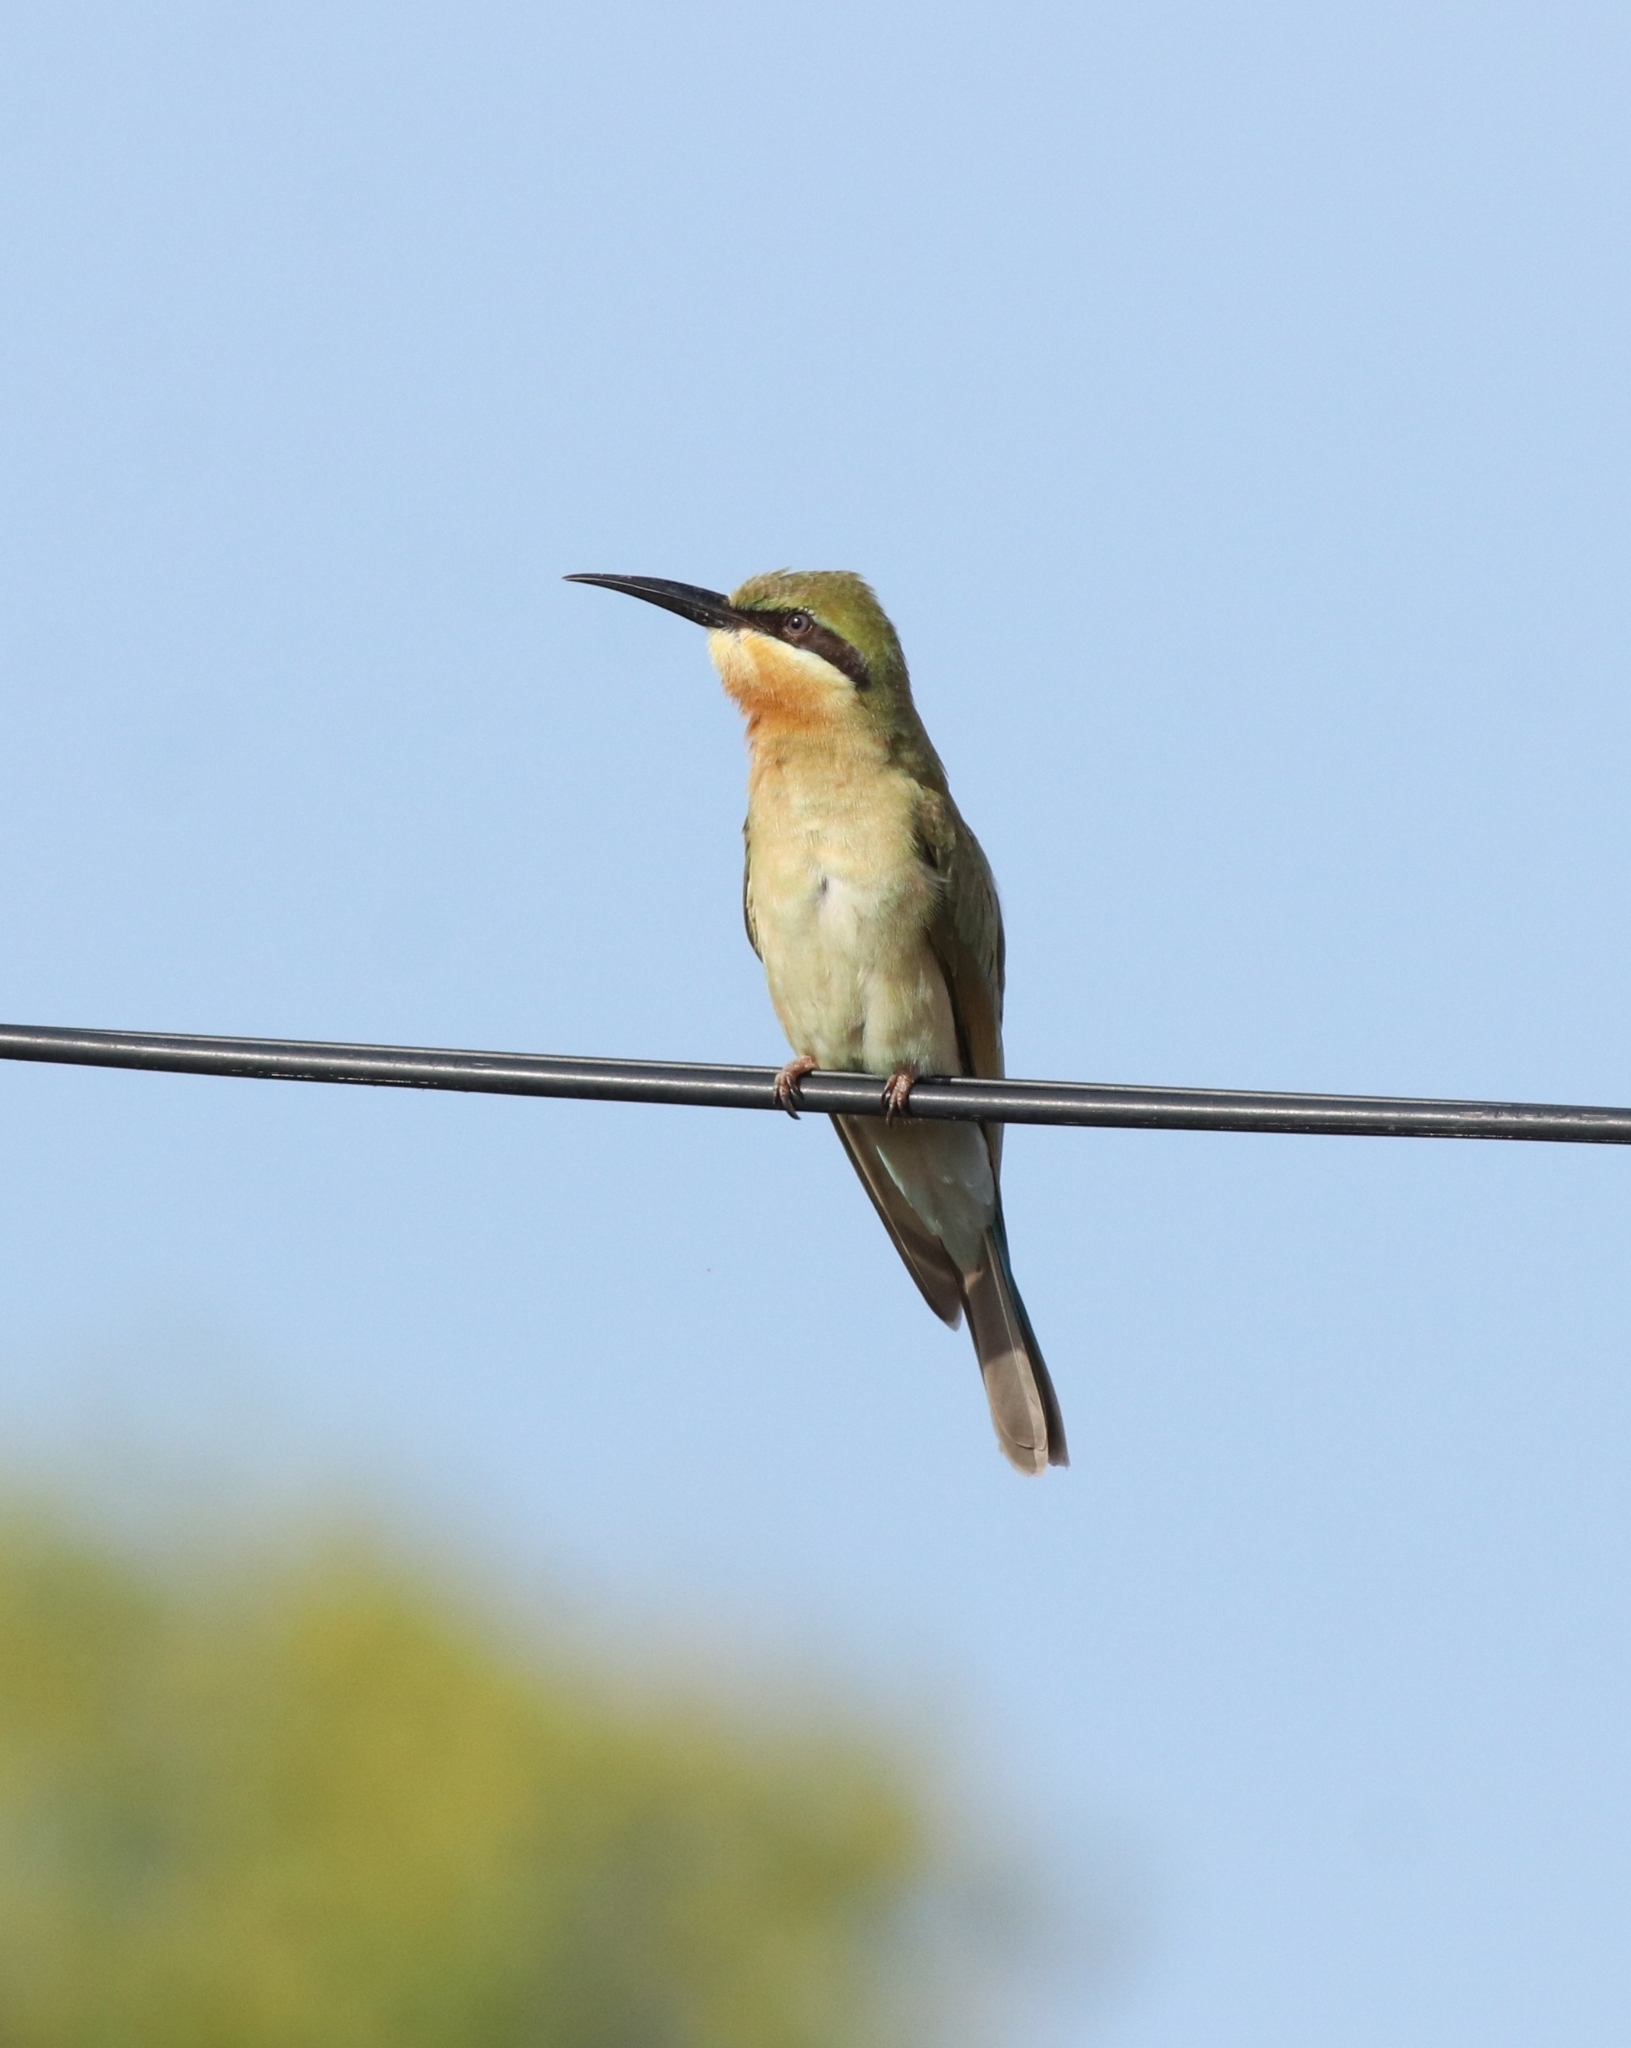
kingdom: Animalia
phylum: Chordata
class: Aves
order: Coraciiformes
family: Meropidae
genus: Merops
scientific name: Merops philippinus
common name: Blue-tailed bee-eater
